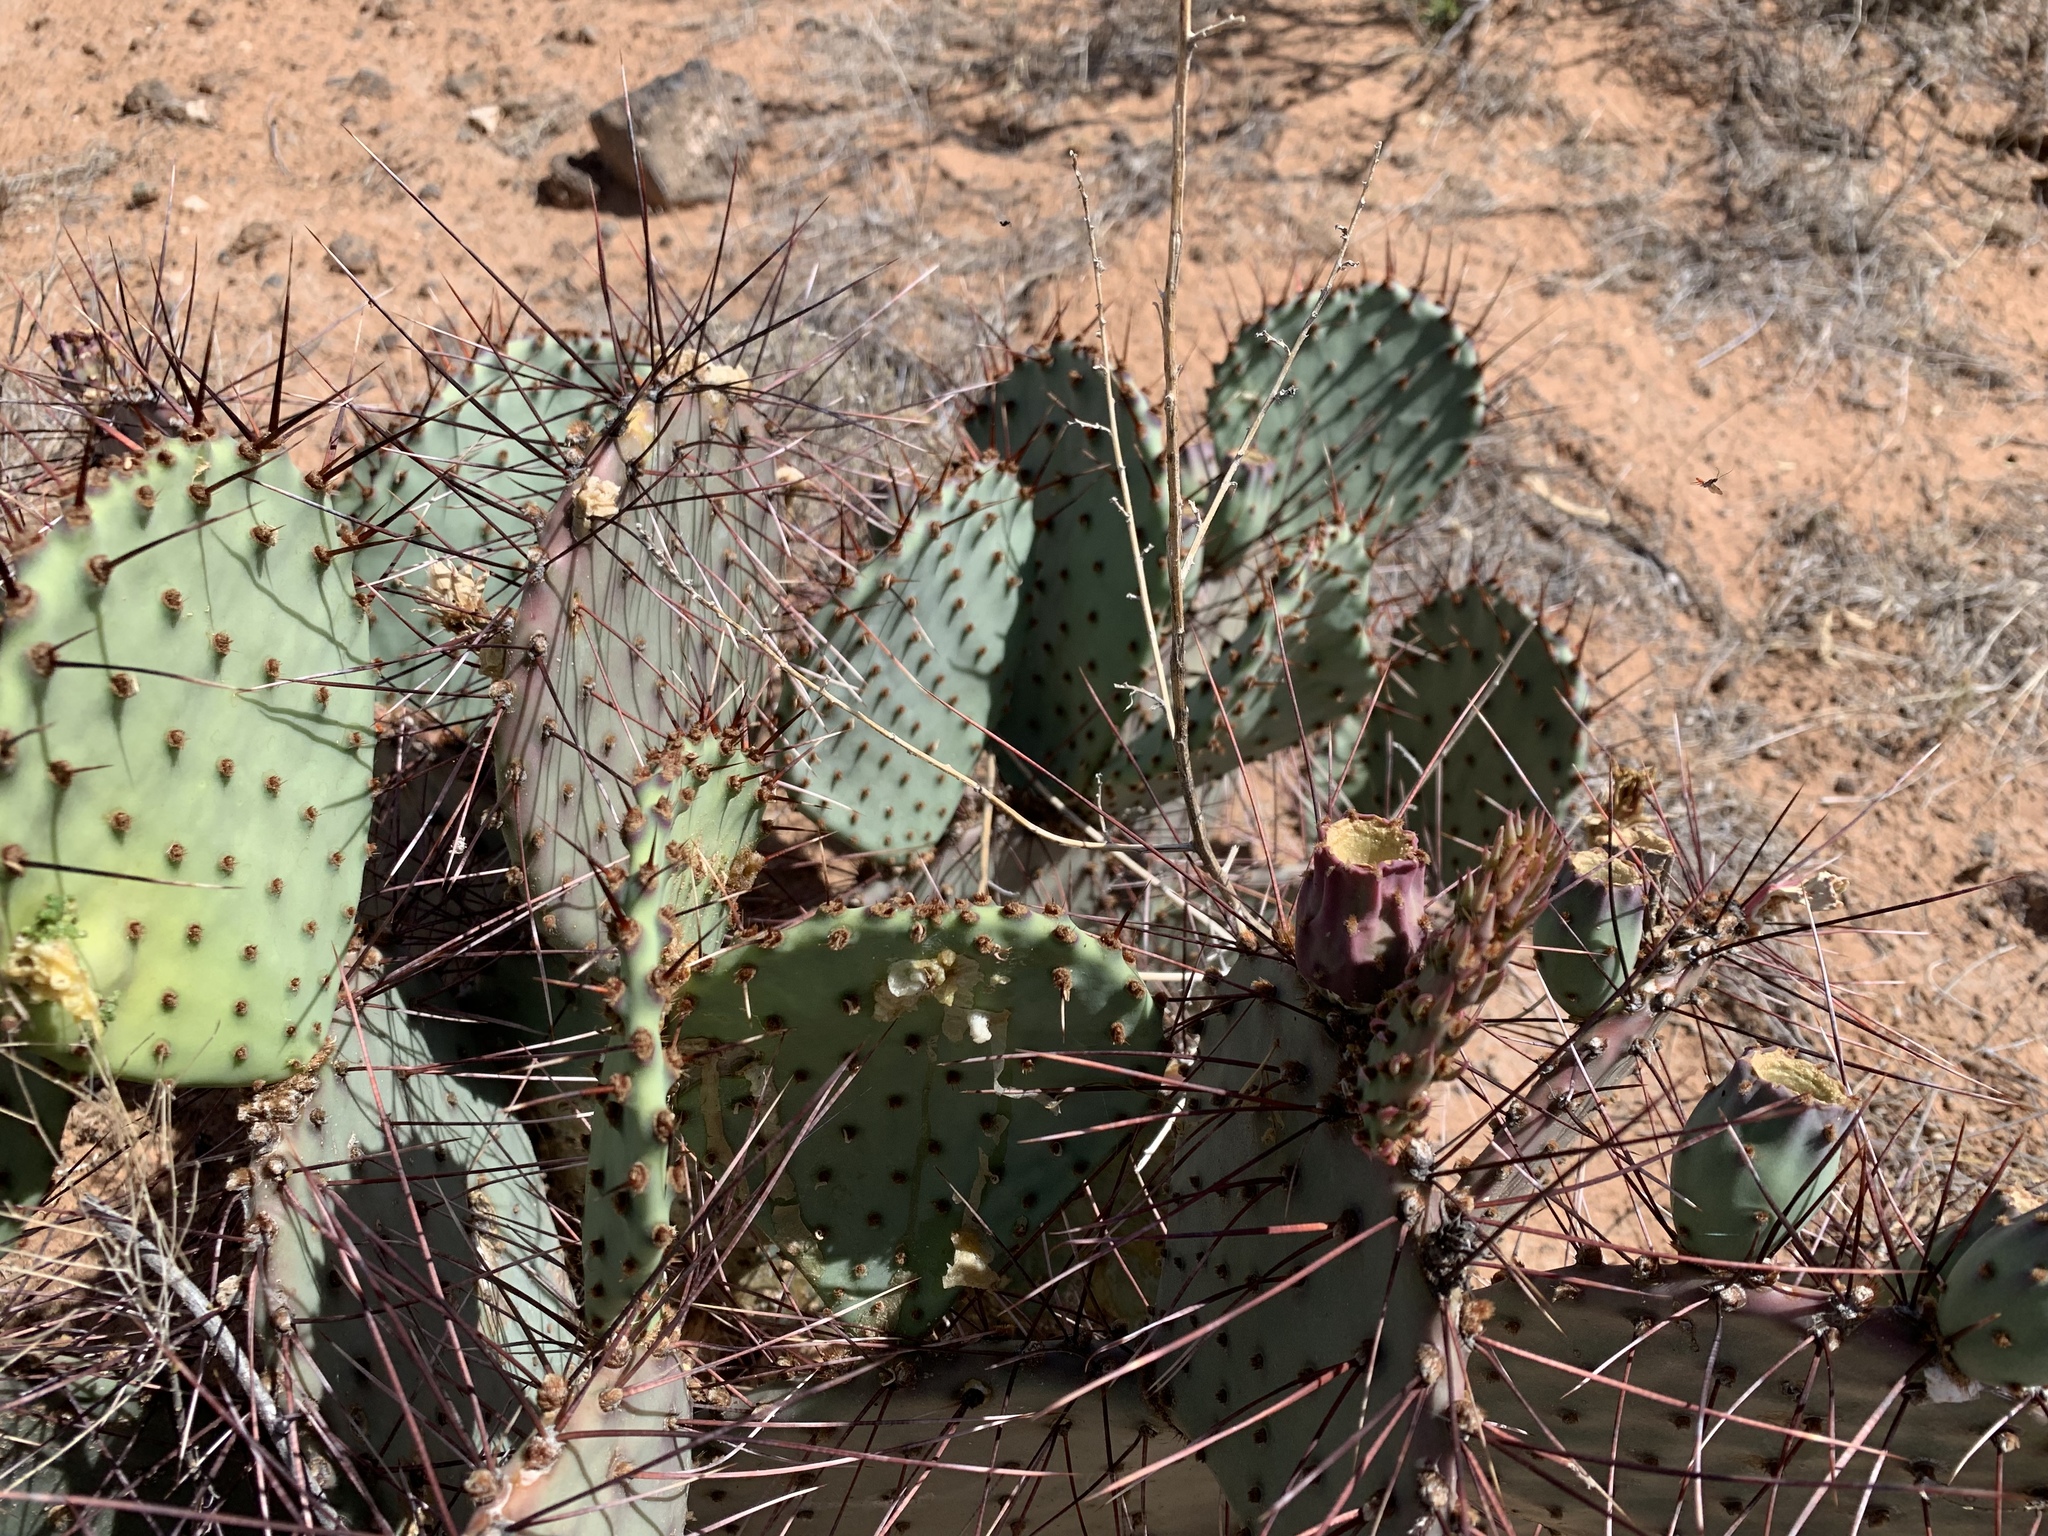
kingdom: Plantae
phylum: Tracheophyta
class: Magnoliopsida
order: Caryophyllales
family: Cactaceae
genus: Opuntia
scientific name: Opuntia macrocentra
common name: Purple prickly-pear
